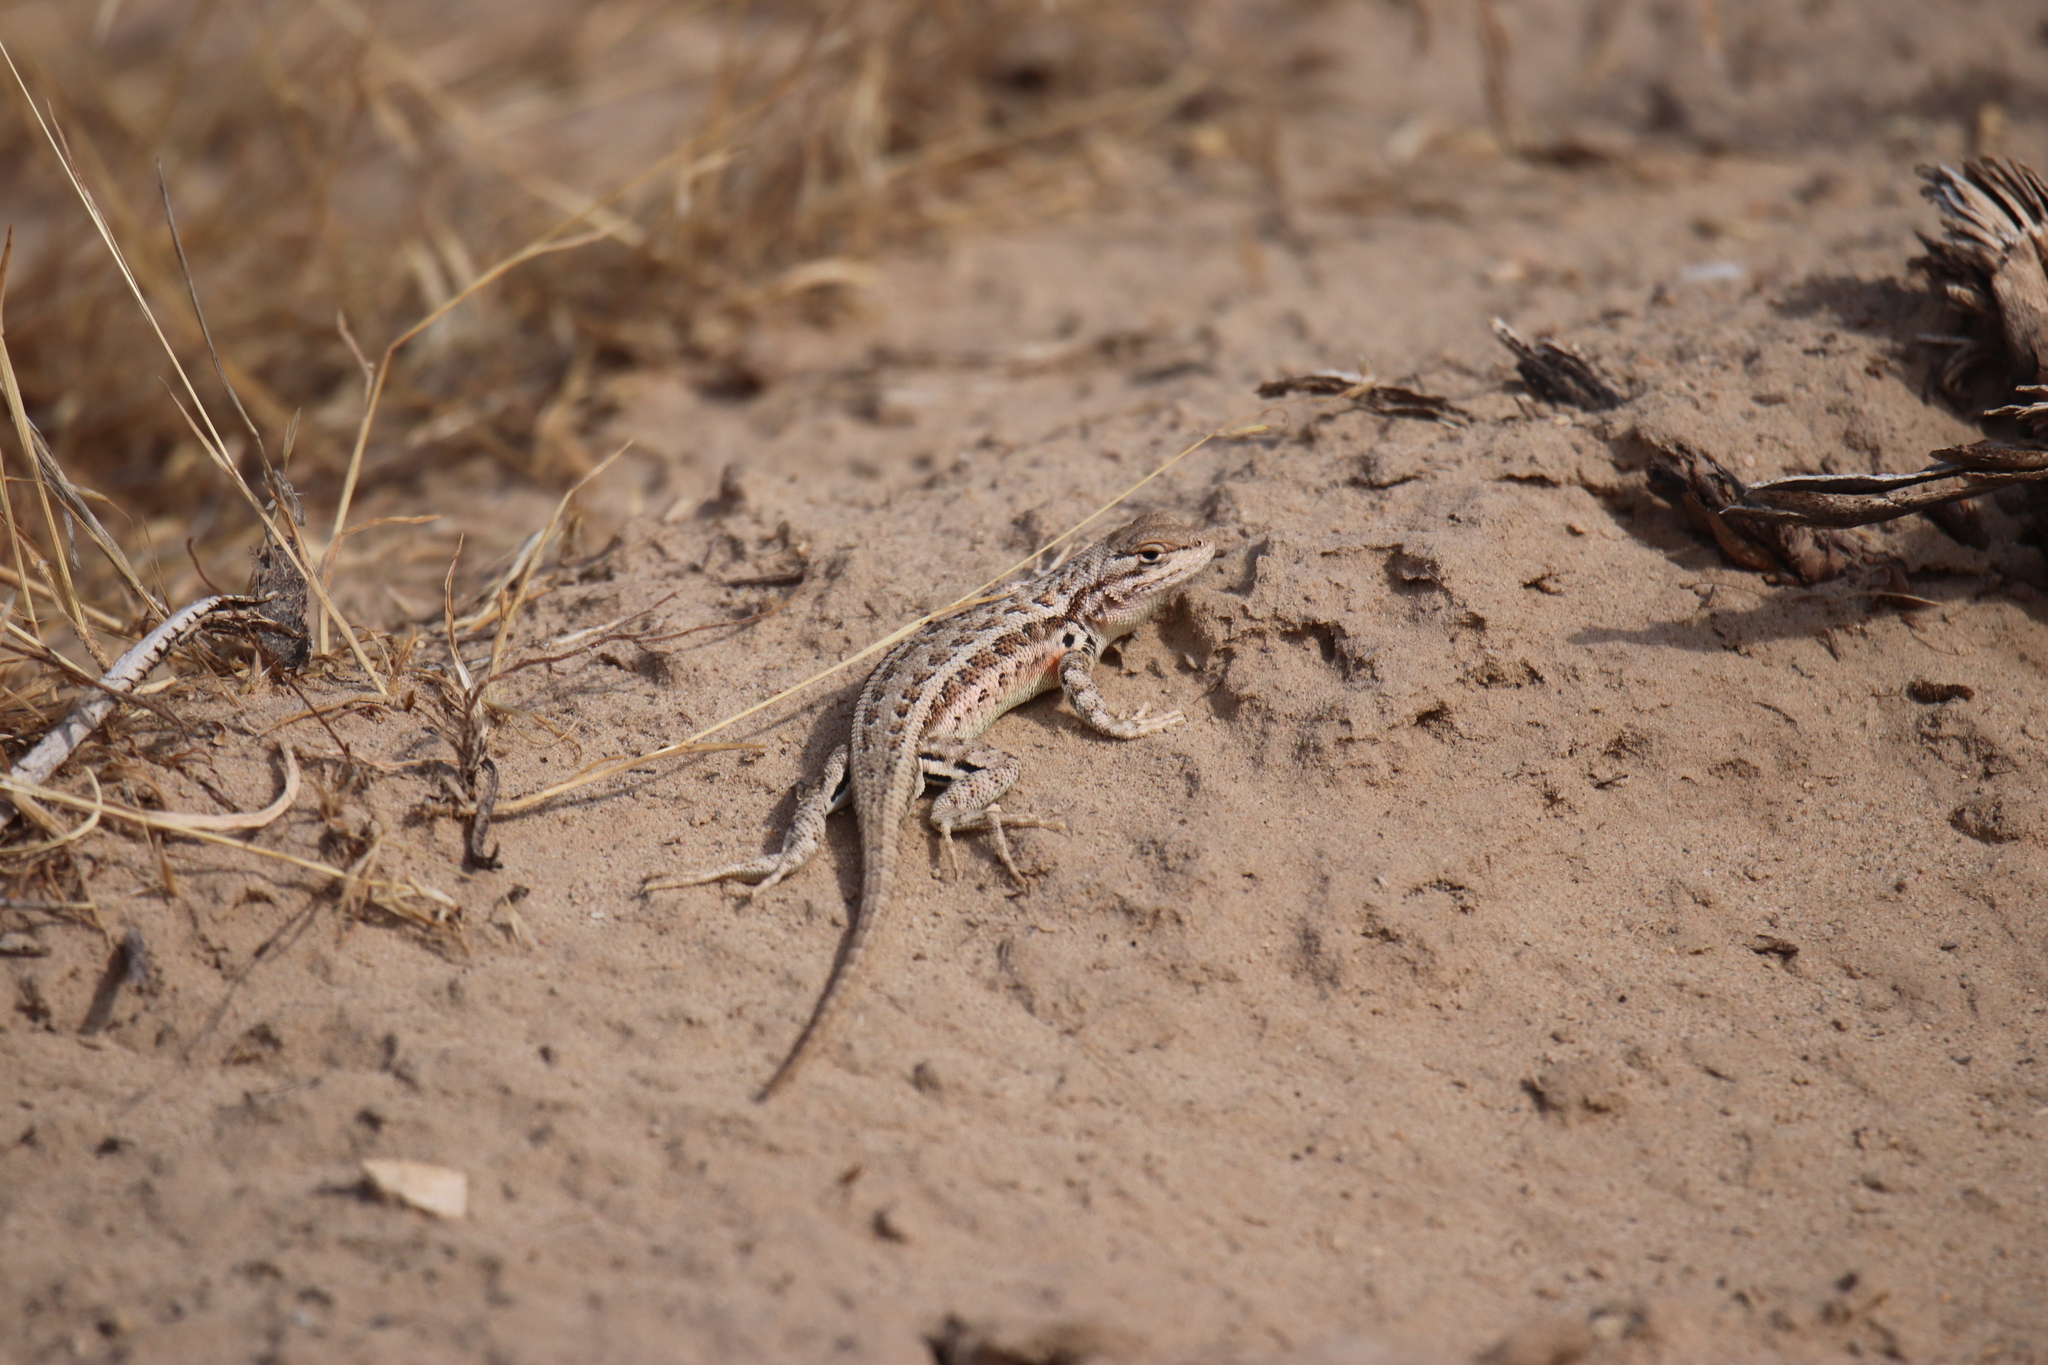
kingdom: Animalia
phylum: Chordata
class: Squamata
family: Phrynosomatidae
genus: Sceloporus
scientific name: Sceloporus graciosus
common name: Sagebrush lizard
